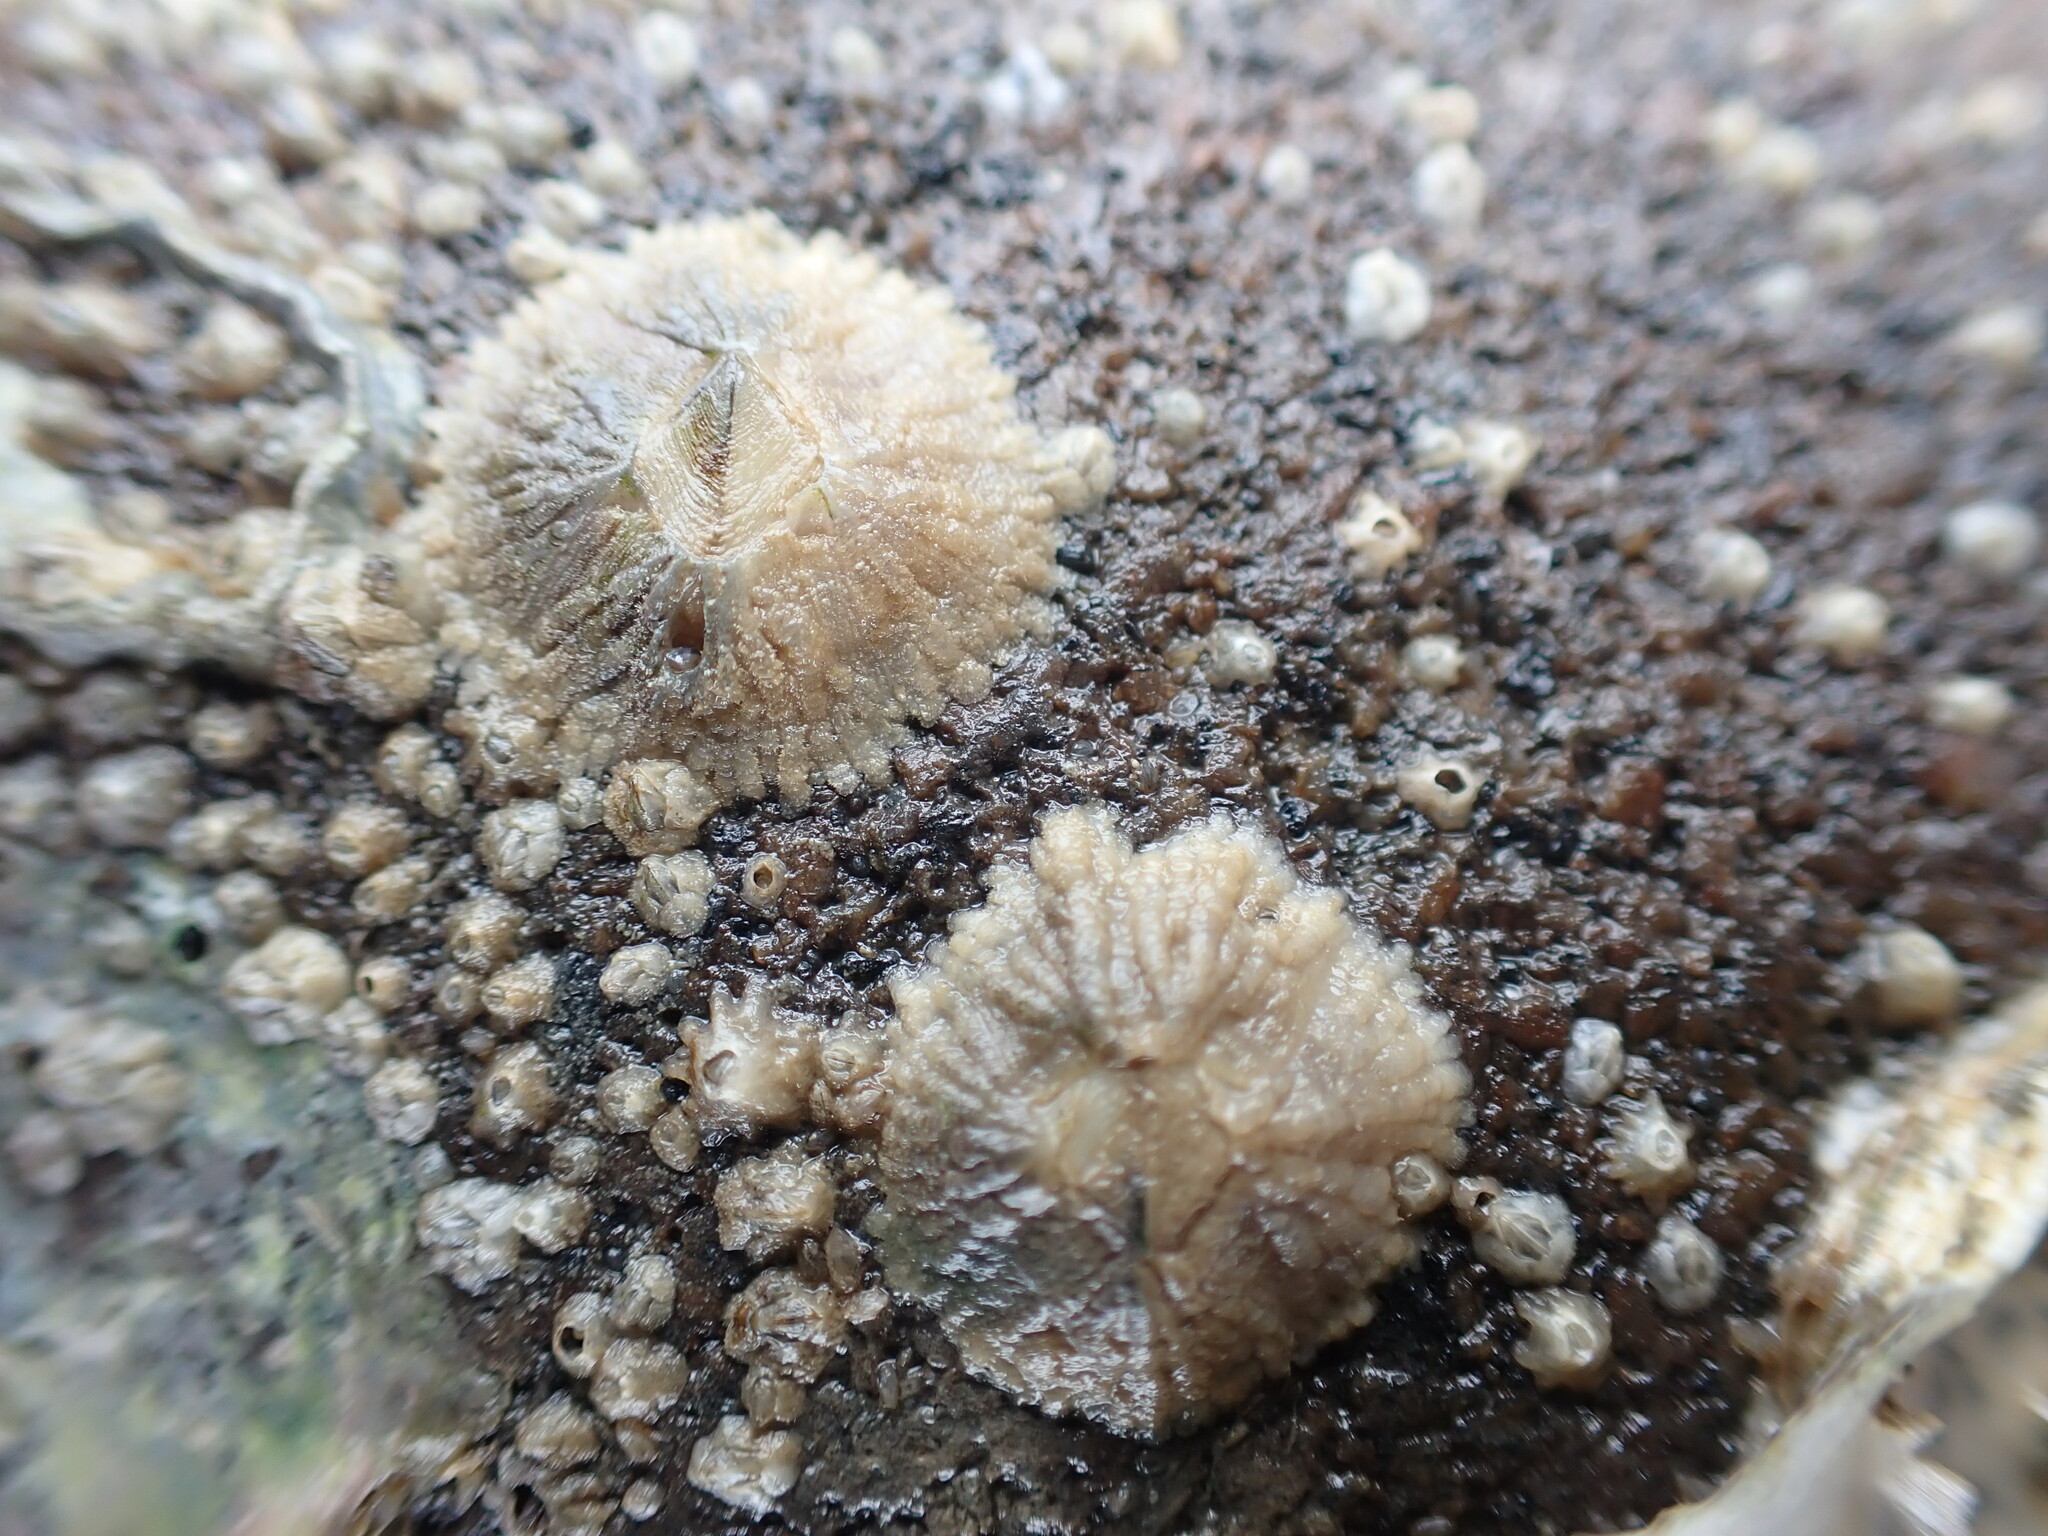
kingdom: Animalia
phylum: Arthropoda
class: Maxillopoda
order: Sessilia
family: Tetraclitidae
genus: Tetraclitella
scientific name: Tetraclitella depressa
